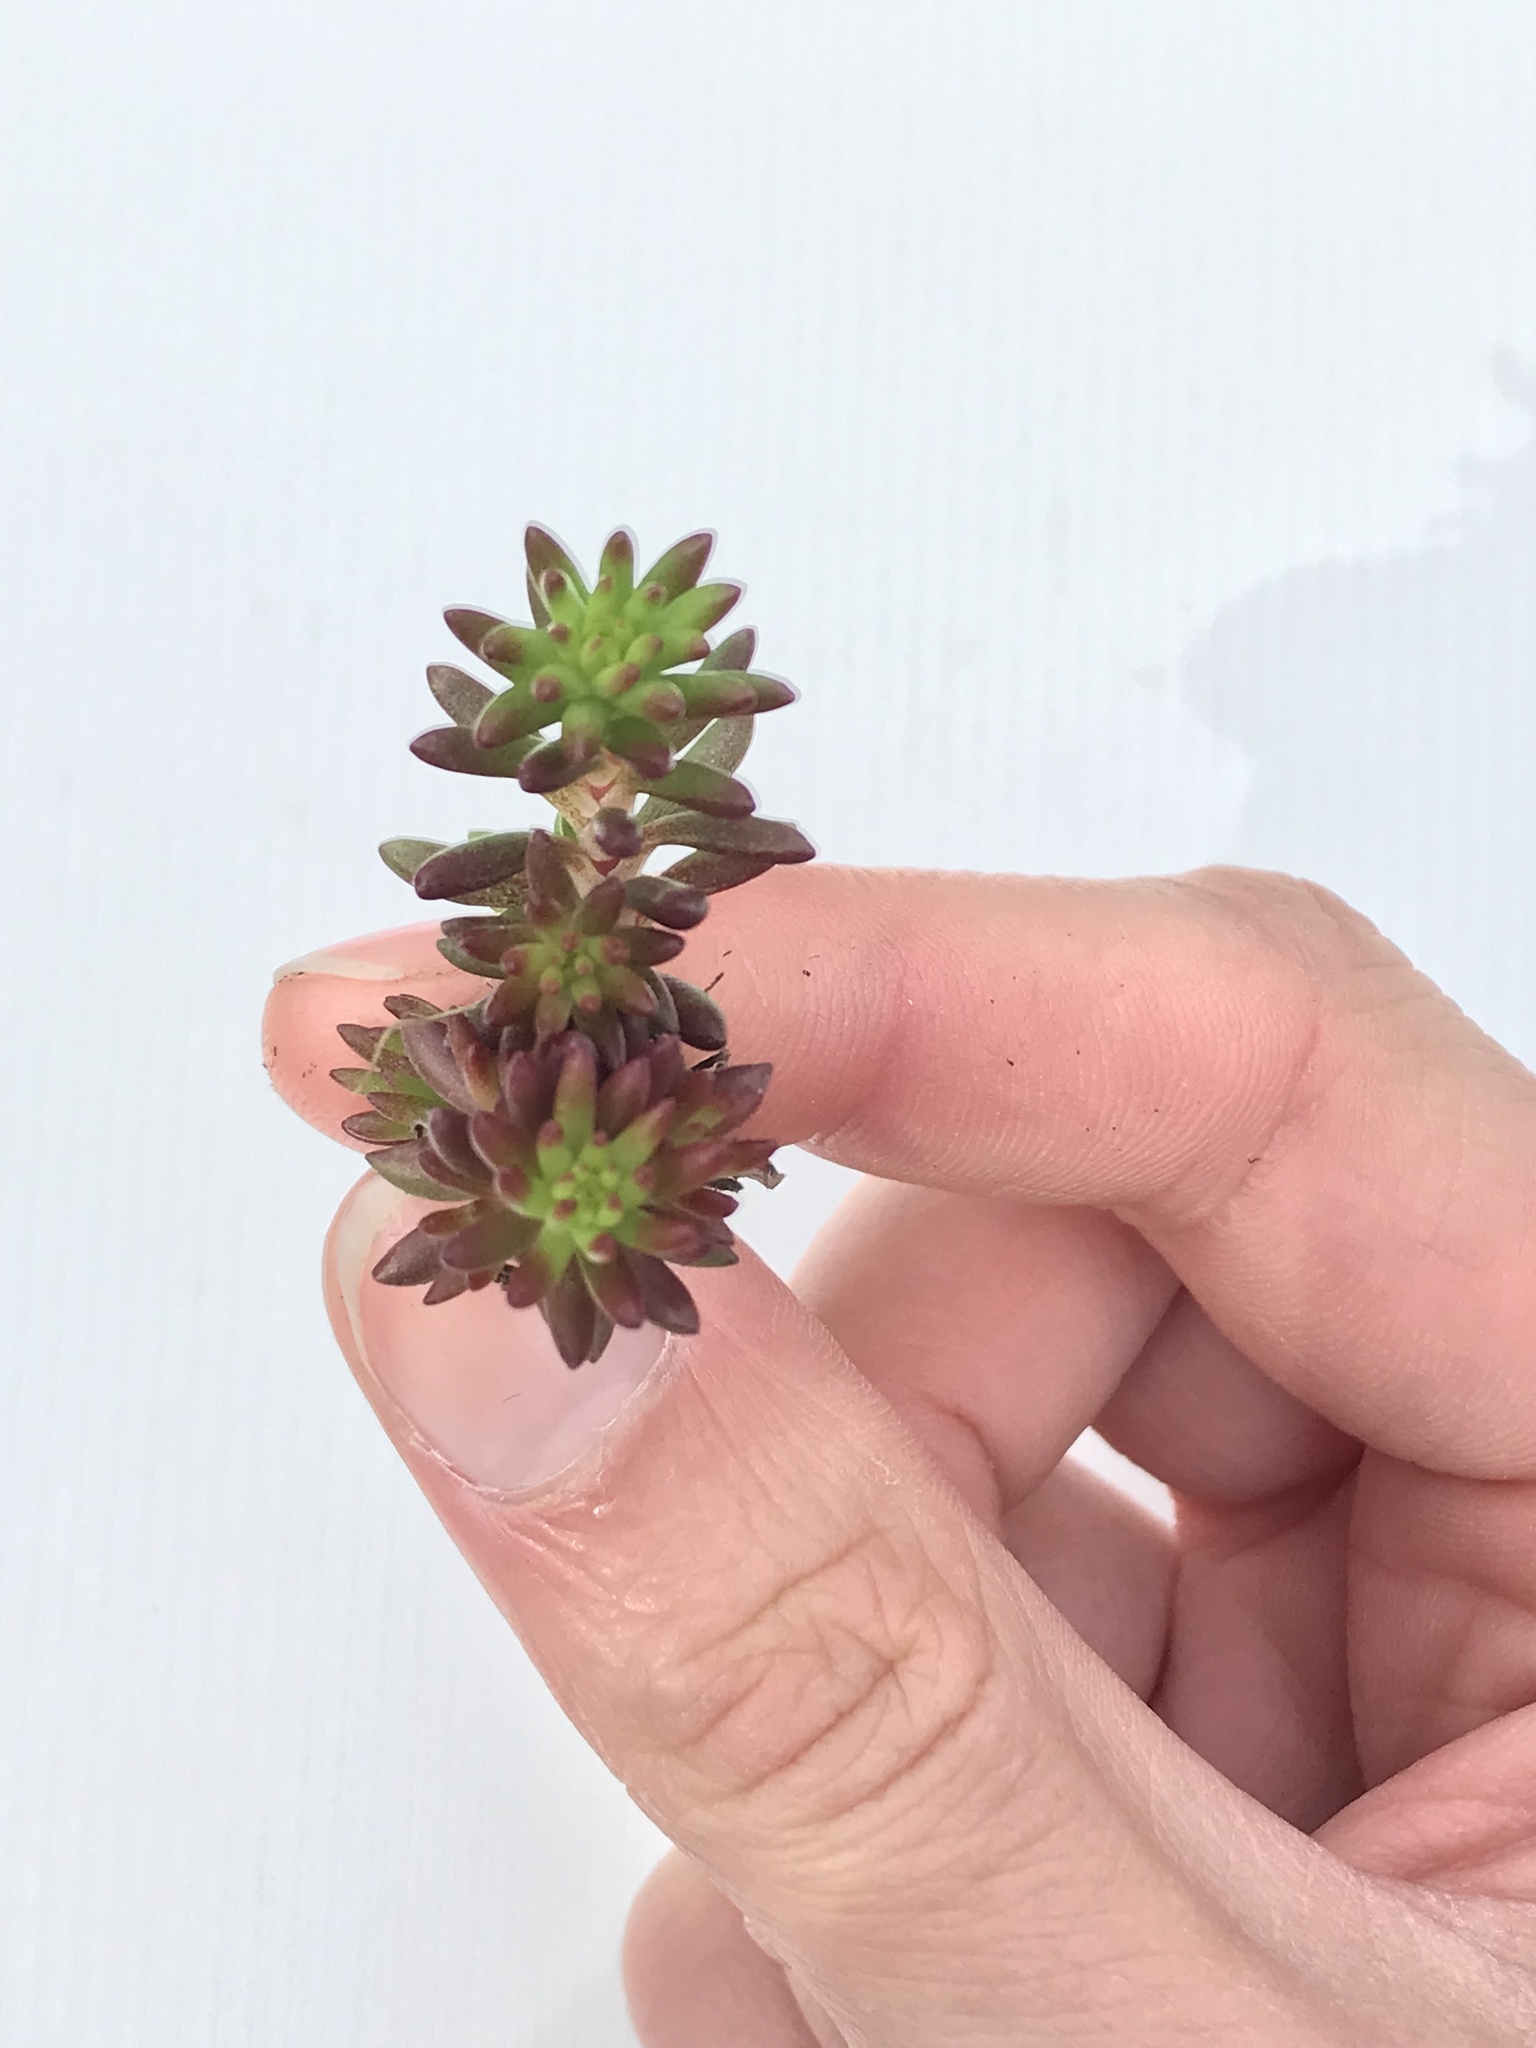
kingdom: Plantae
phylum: Tracheophyta
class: Magnoliopsida
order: Saxifragales
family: Crassulaceae
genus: Sedum
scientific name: Sedum stenopetalum
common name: Narrow-petaled stonecrop
